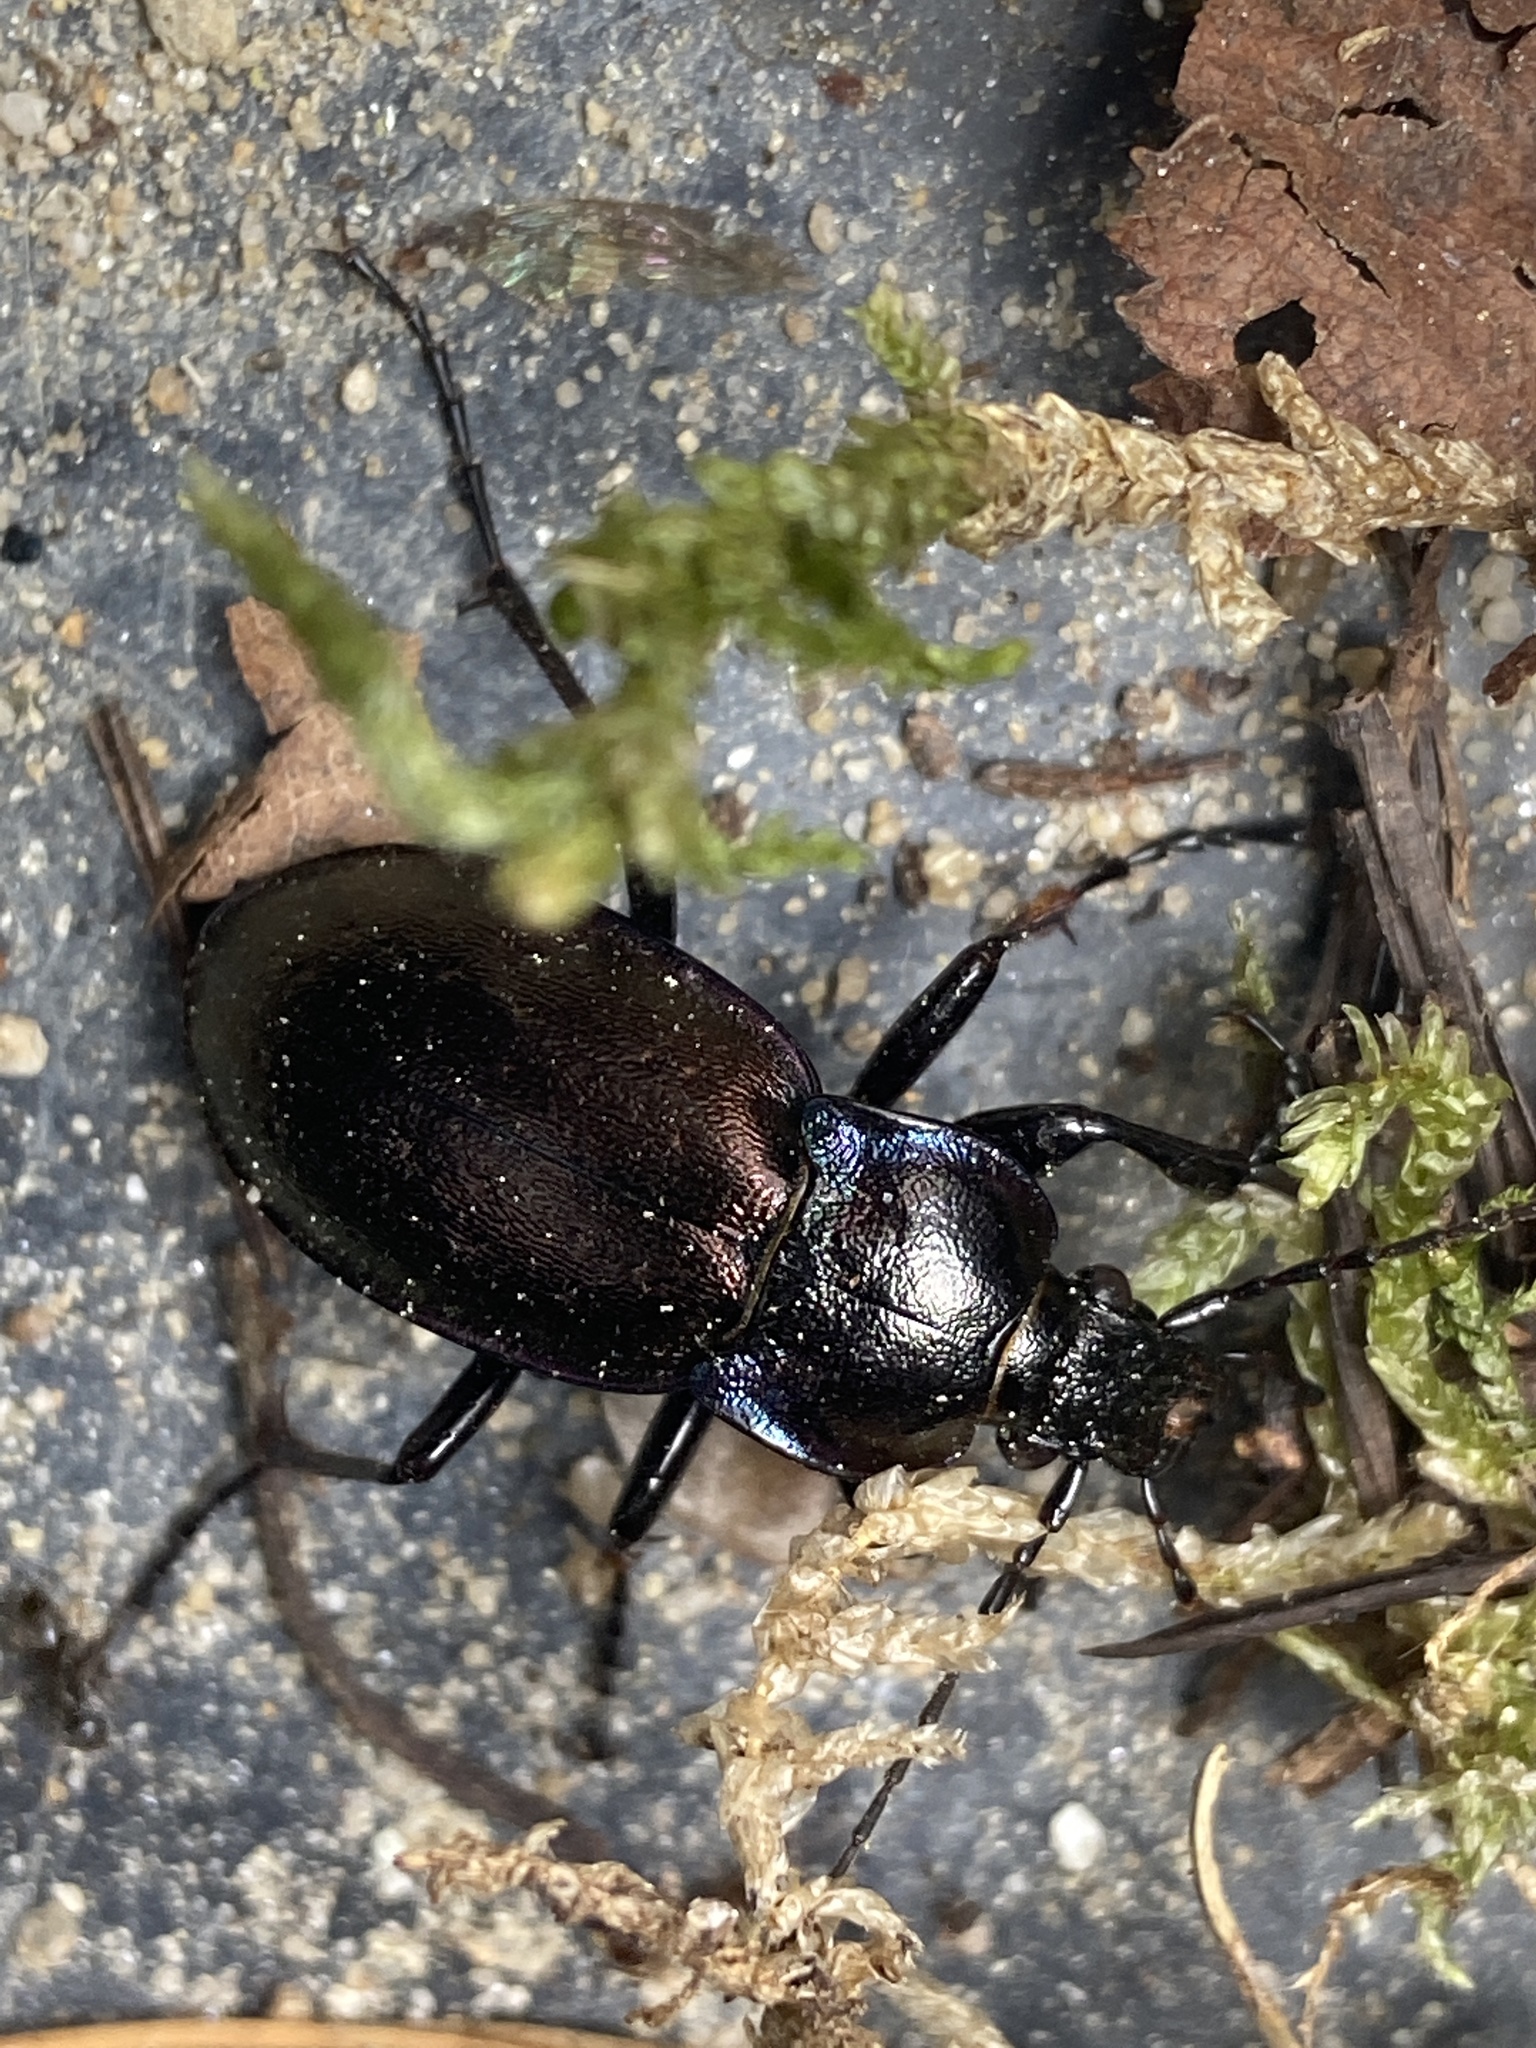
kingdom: Animalia
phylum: Arthropoda
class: Insecta
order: Coleoptera
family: Carabidae
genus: Carabus
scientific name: Carabus nemoralis
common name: European ground beetle
